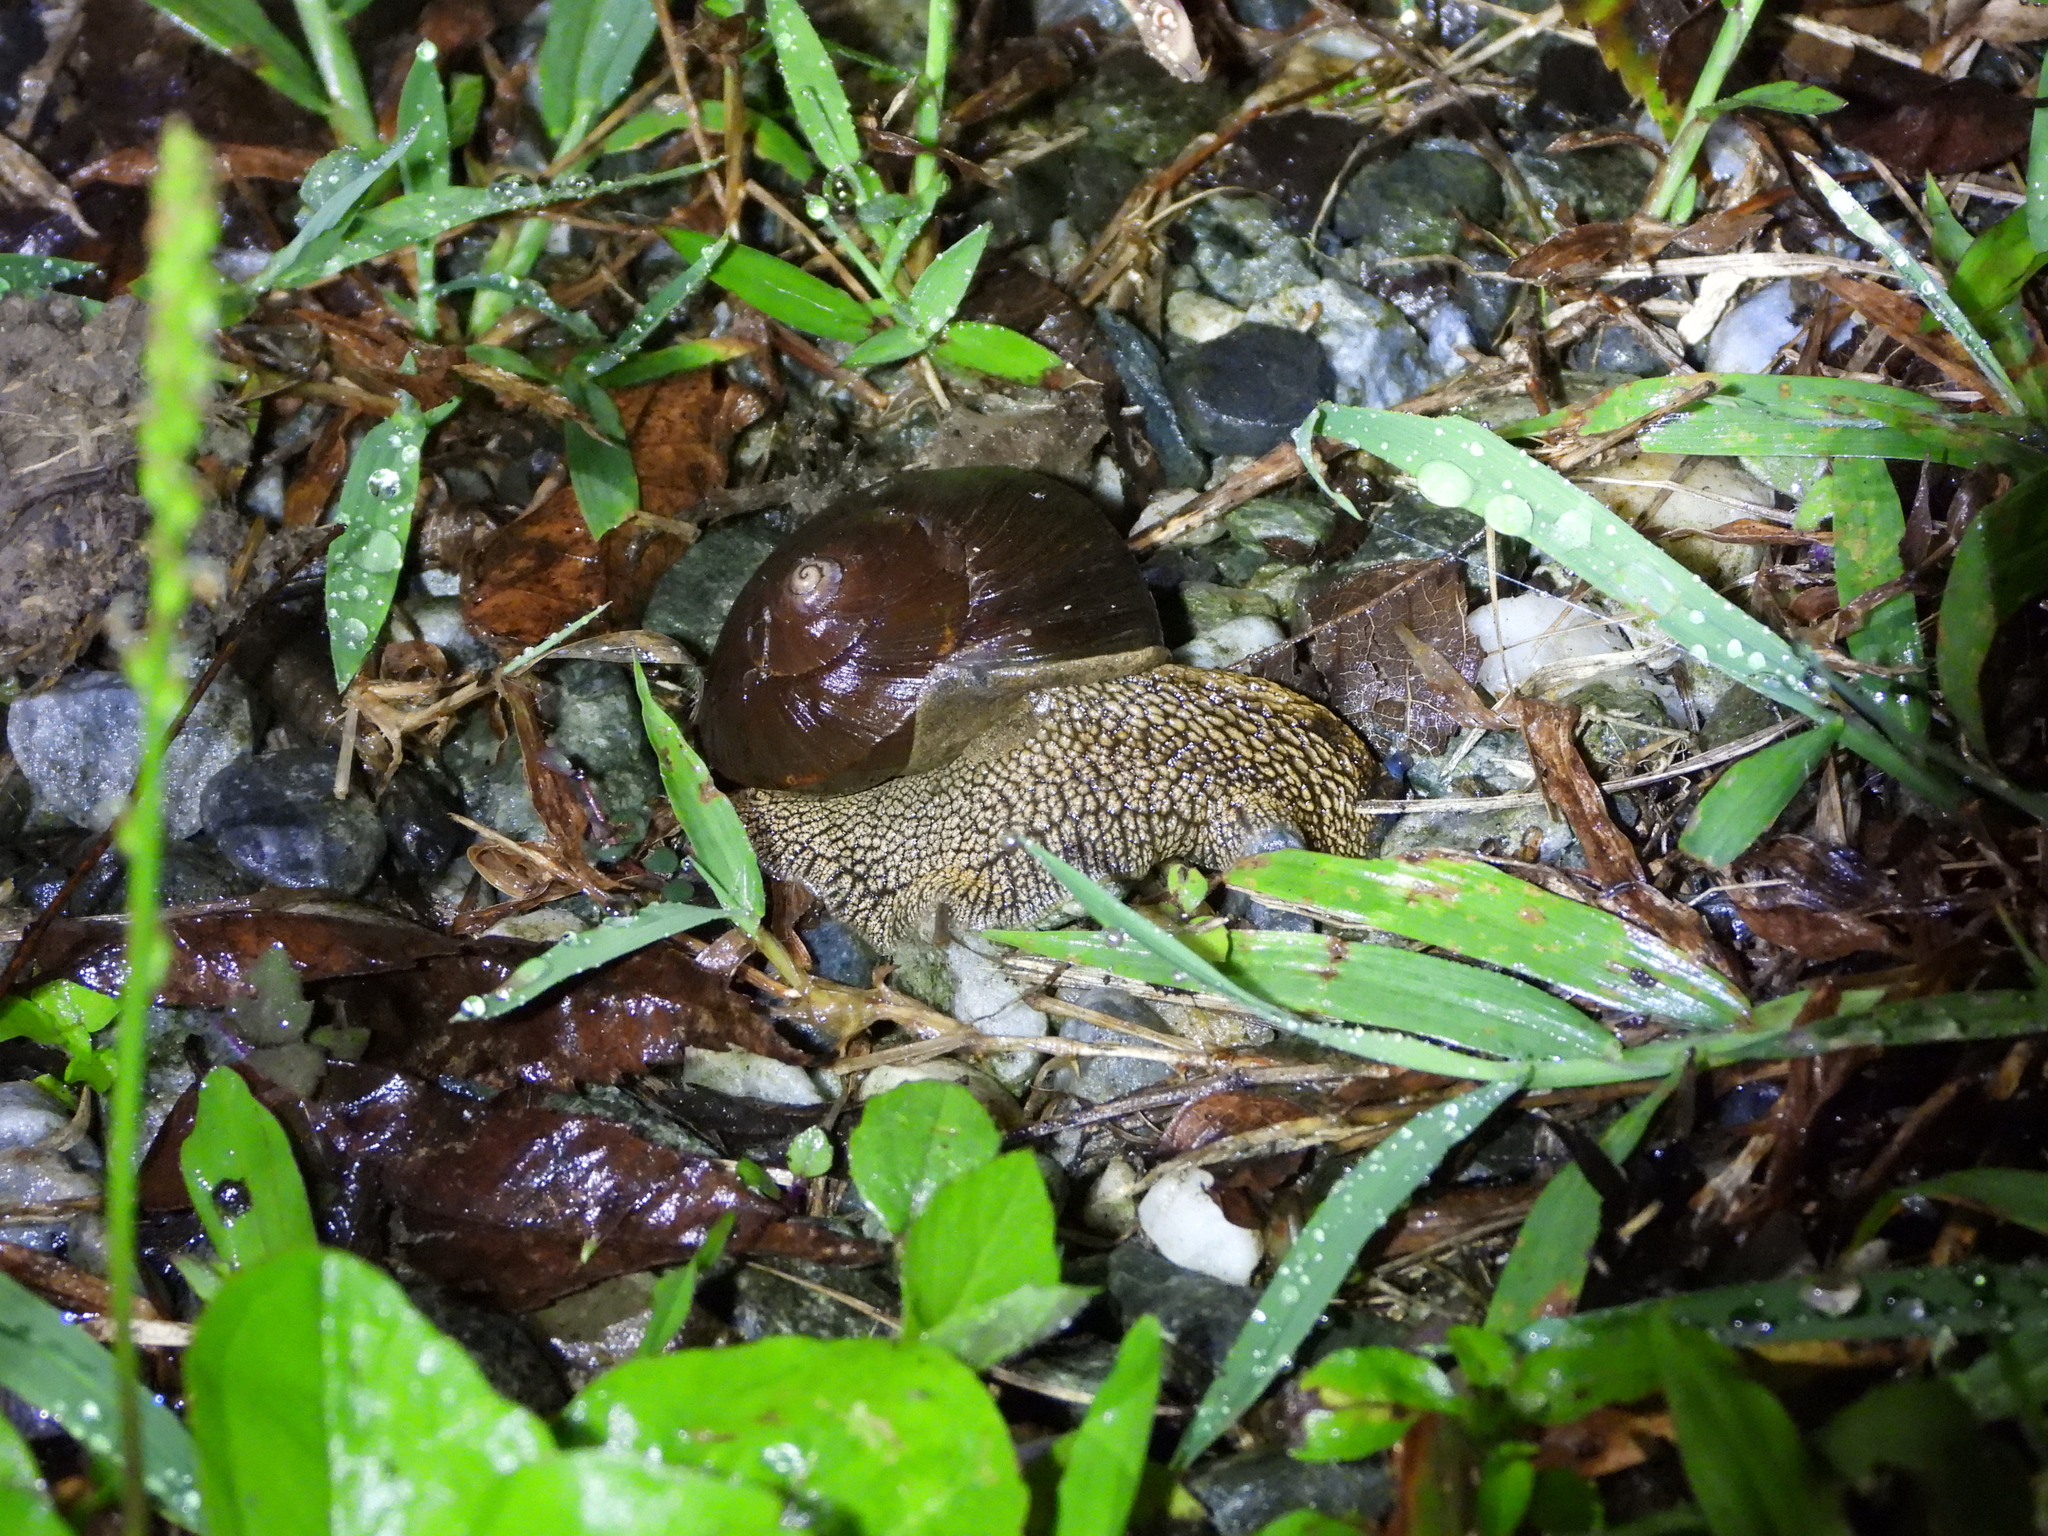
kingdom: Animalia
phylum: Mollusca
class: Gastropoda
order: Stylommatophora
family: Camaenidae
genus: Nesiohelix
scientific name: Nesiohelix swinhoei
